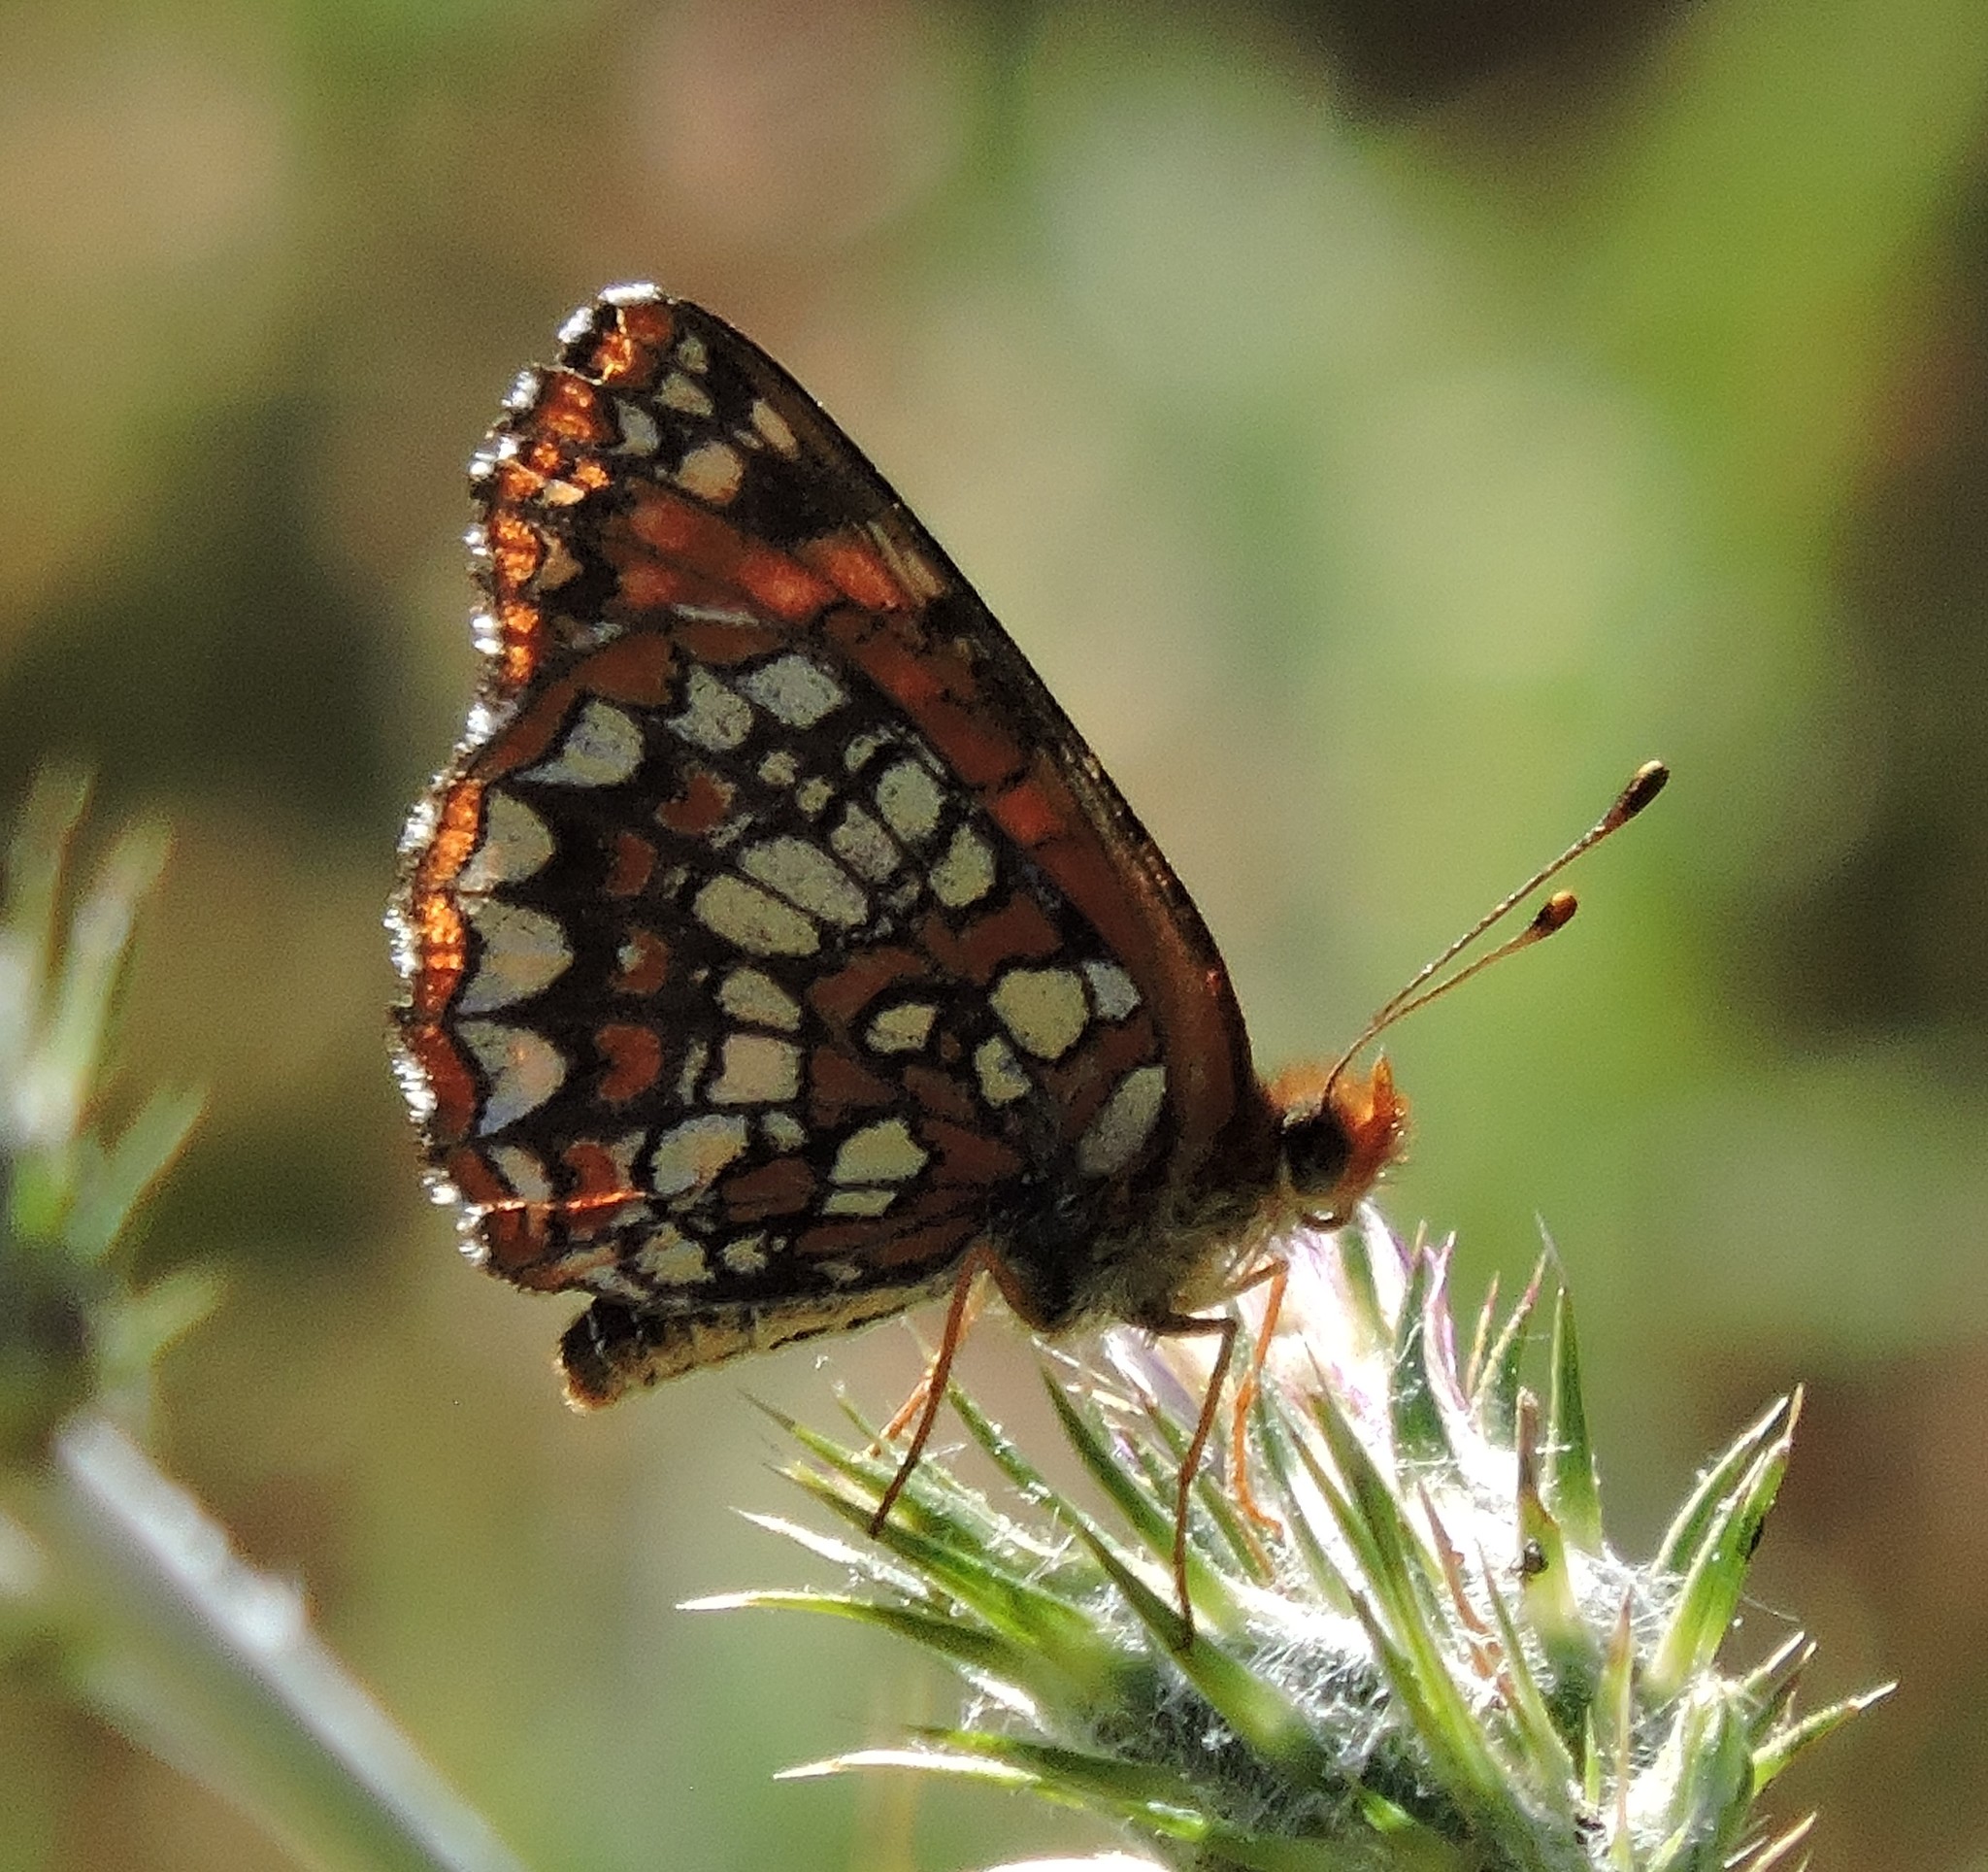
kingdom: Animalia
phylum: Arthropoda
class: Insecta
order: Lepidoptera
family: Nymphalidae
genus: Chlosyne
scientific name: Chlosyne palla
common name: Northern checkerspot
